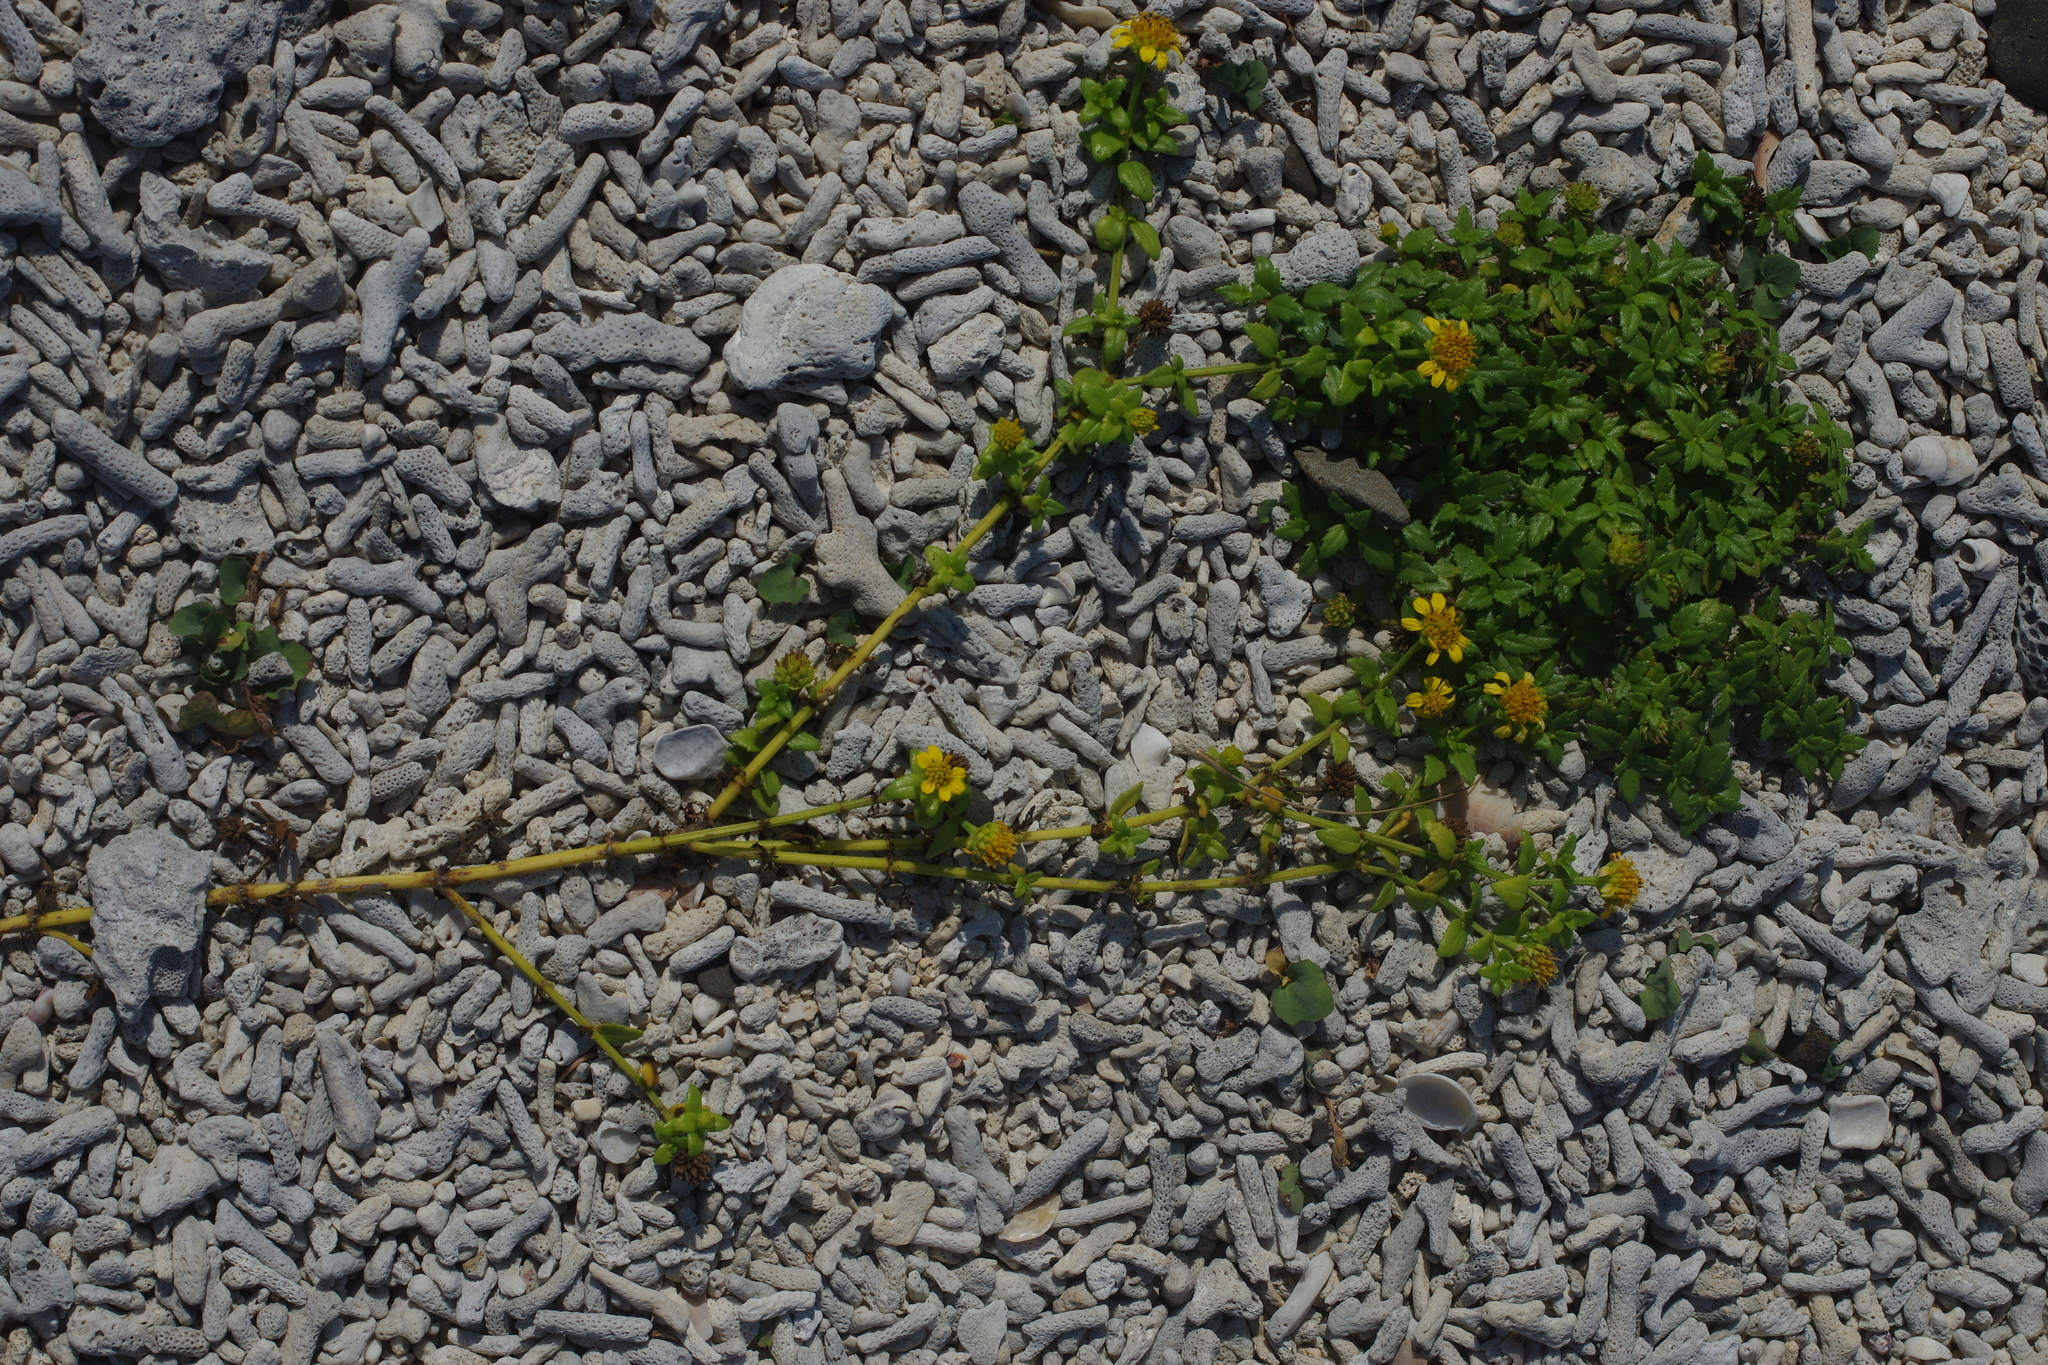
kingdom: Plantae
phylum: Tracheophyta
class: Magnoliopsida
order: Asterales
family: Asteraceae
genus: Melanthera
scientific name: Melanthera prostrata
